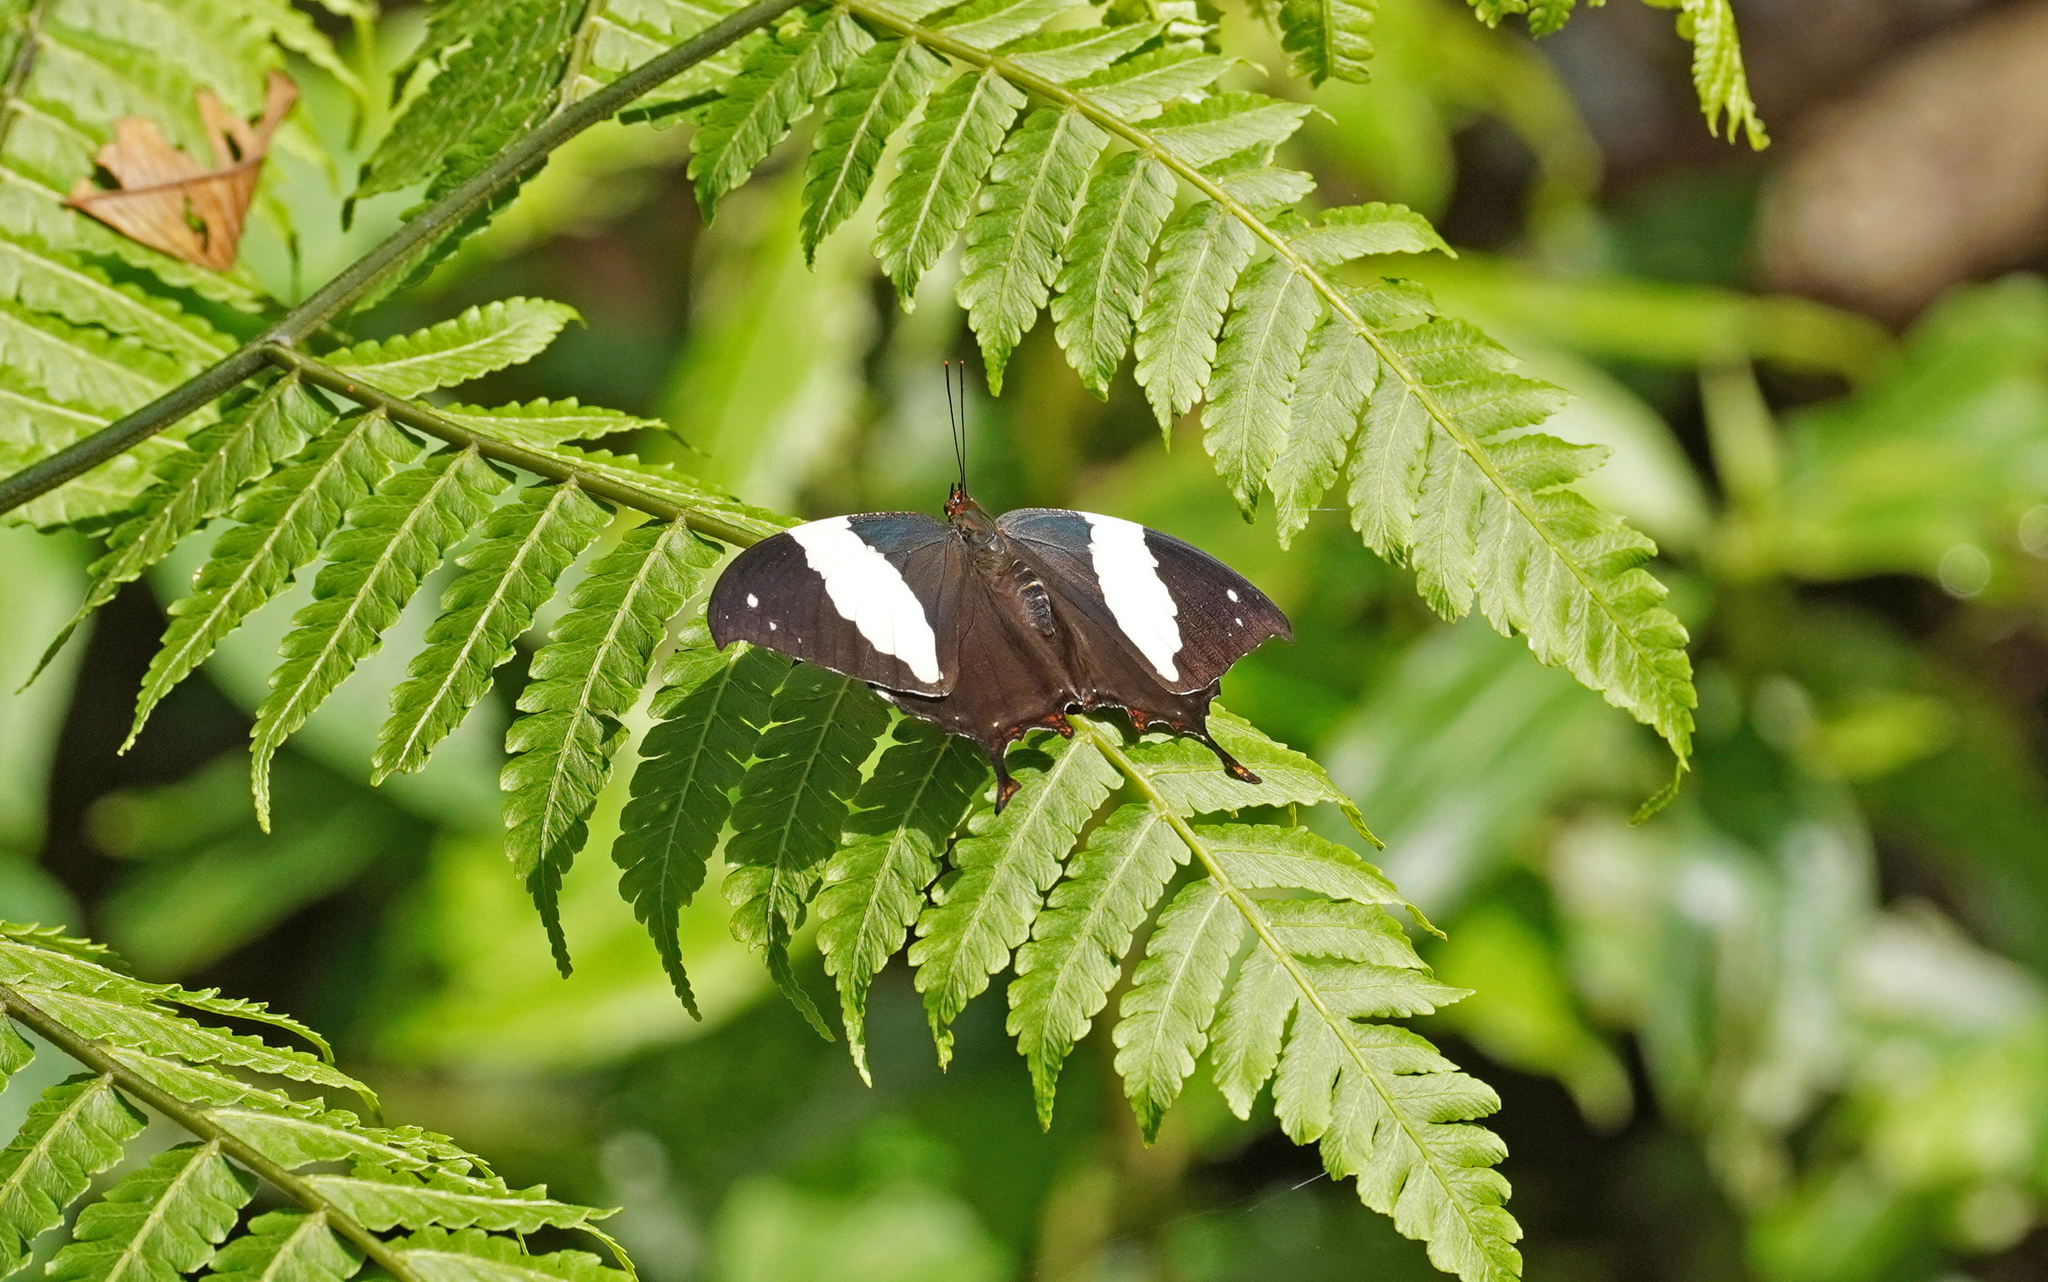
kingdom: Animalia
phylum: Arthropoda
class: Insecta
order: Lepidoptera
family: Nymphalidae
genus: Hypna
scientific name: Hypna clytemnestra
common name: Silver-studded leafwing
